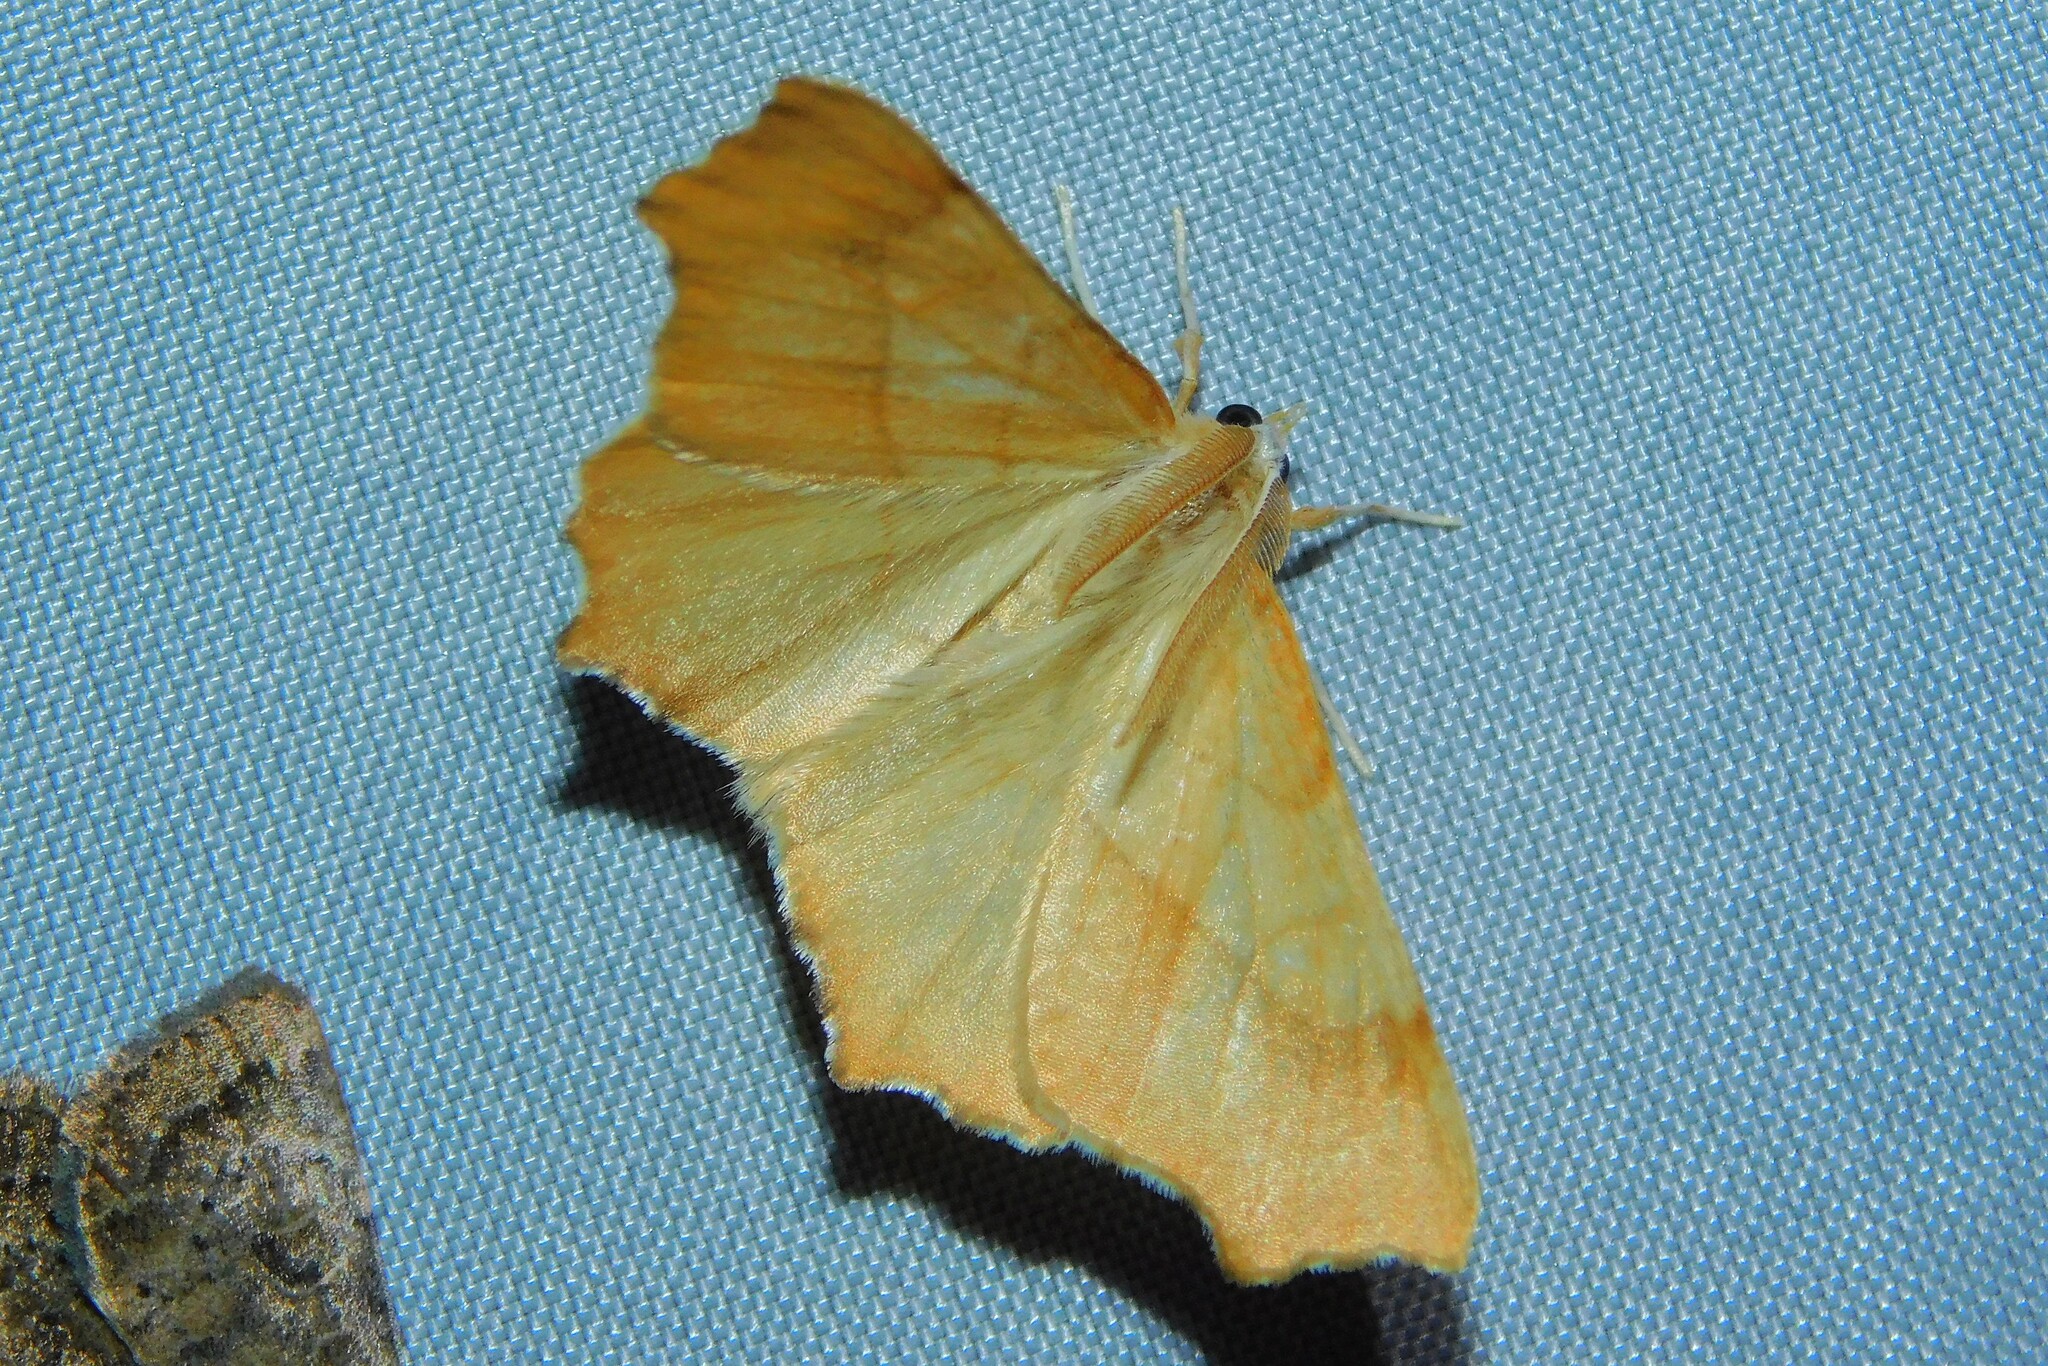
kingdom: Animalia
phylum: Arthropoda
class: Insecta
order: Lepidoptera
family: Geometridae
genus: Ennomos
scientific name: Ennomos quercinaria
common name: August thorn
